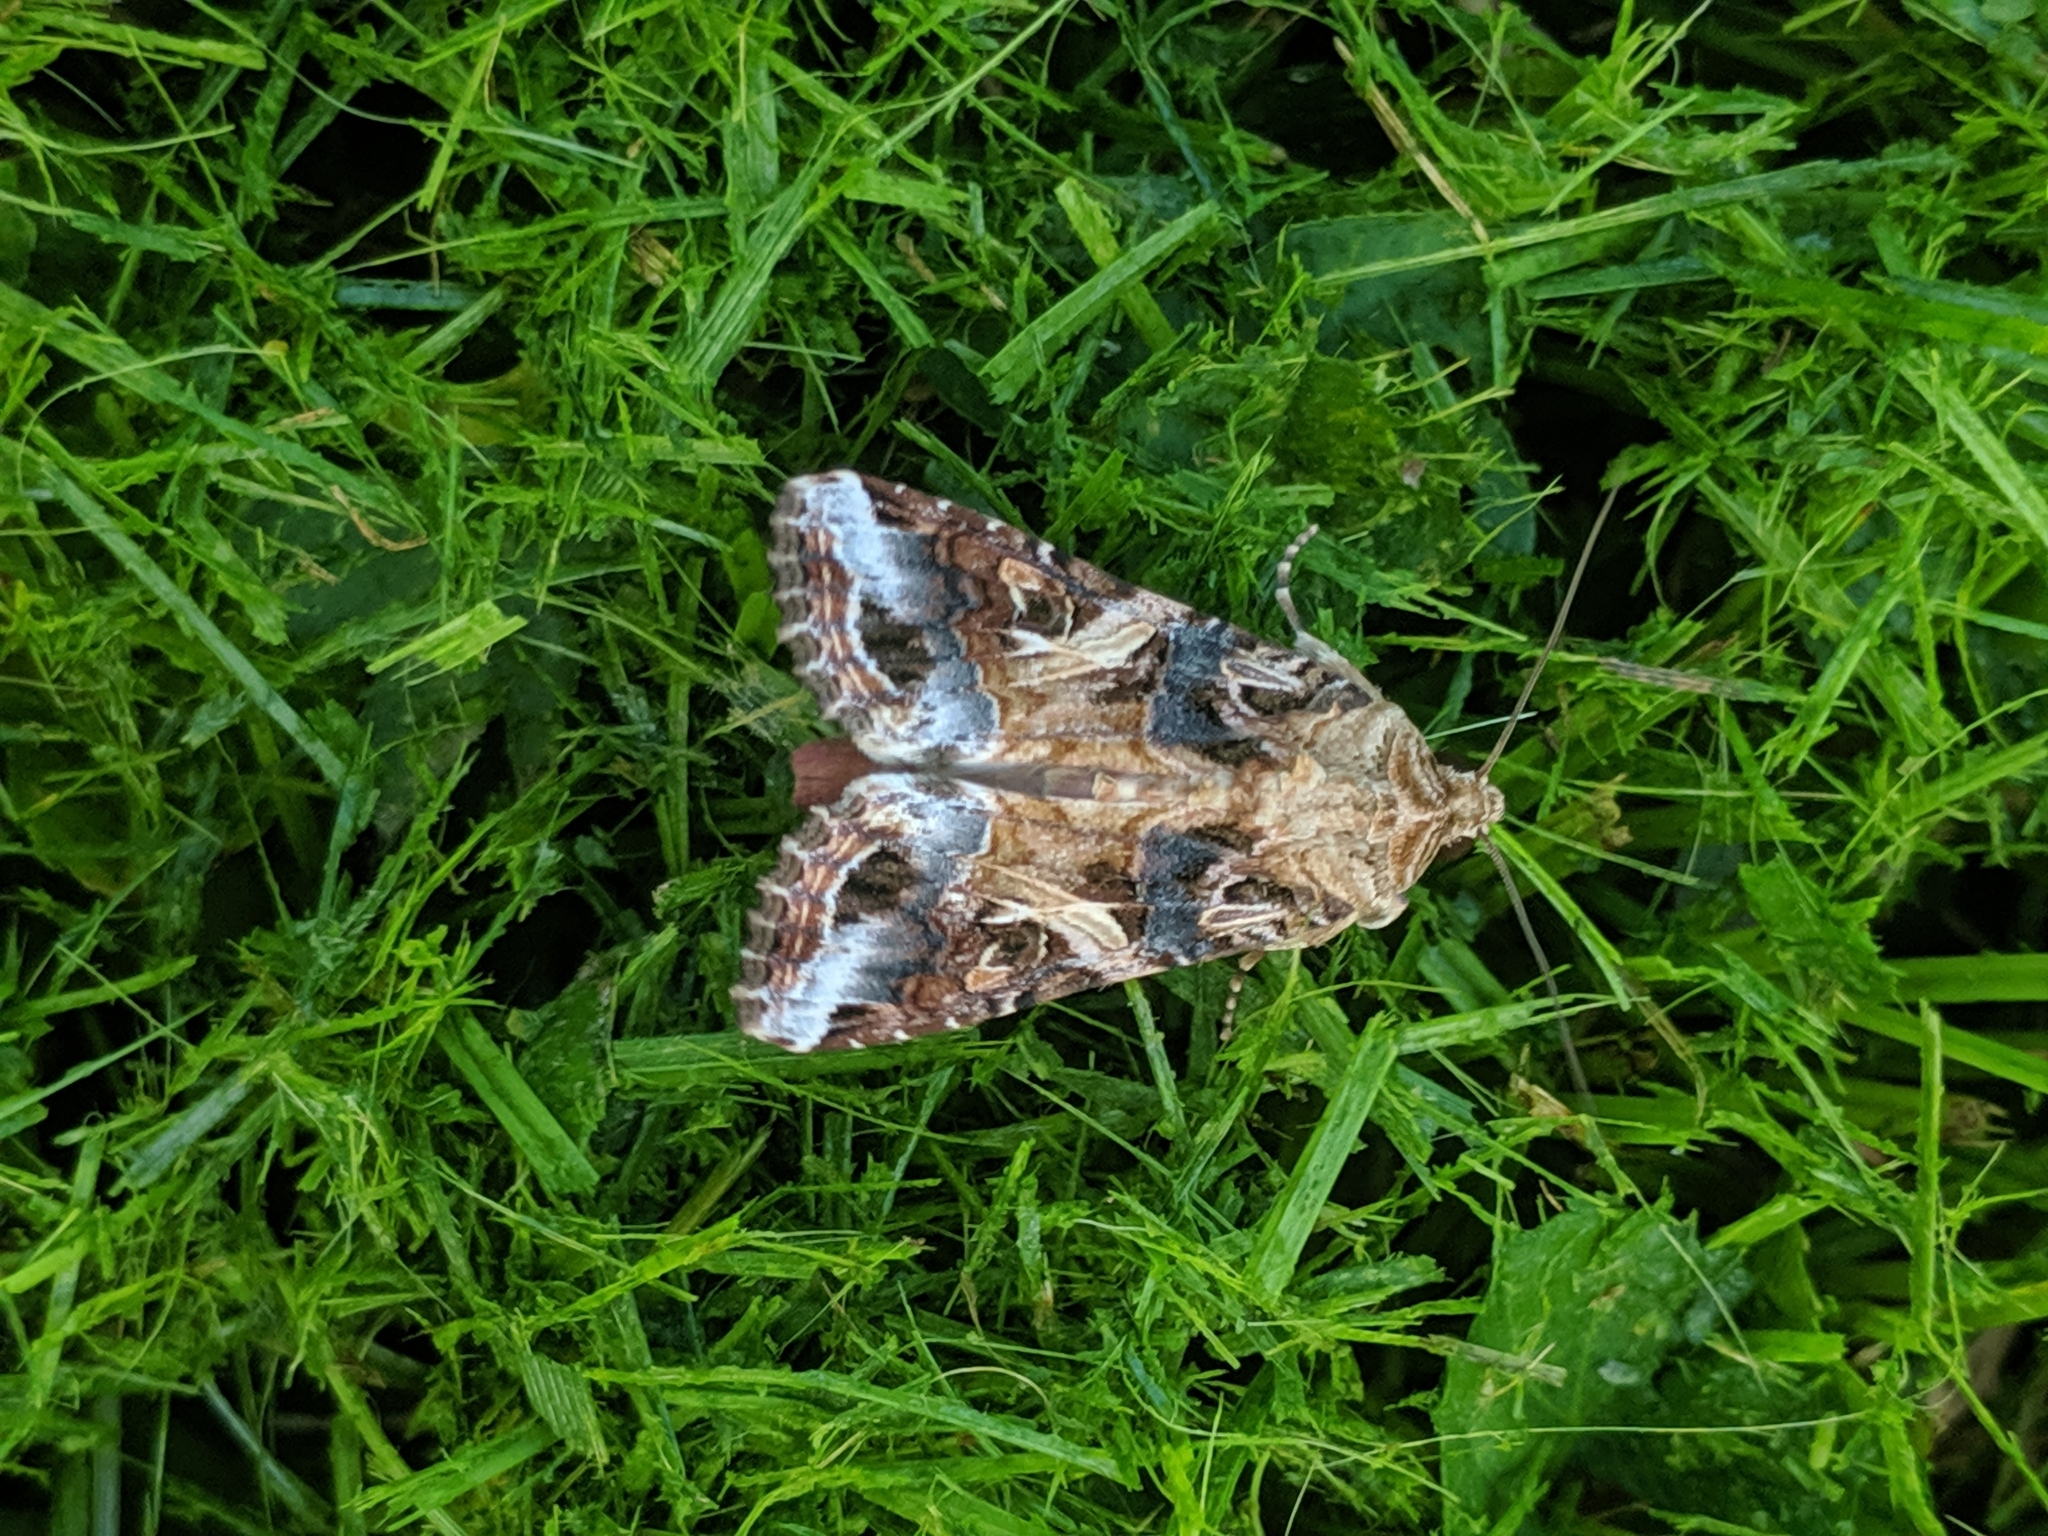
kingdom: Animalia
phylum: Arthropoda
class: Insecta
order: Lepidoptera
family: Noctuidae
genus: Spodoptera
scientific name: Spodoptera ornithogalli
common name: Yellow-striped armyworm
